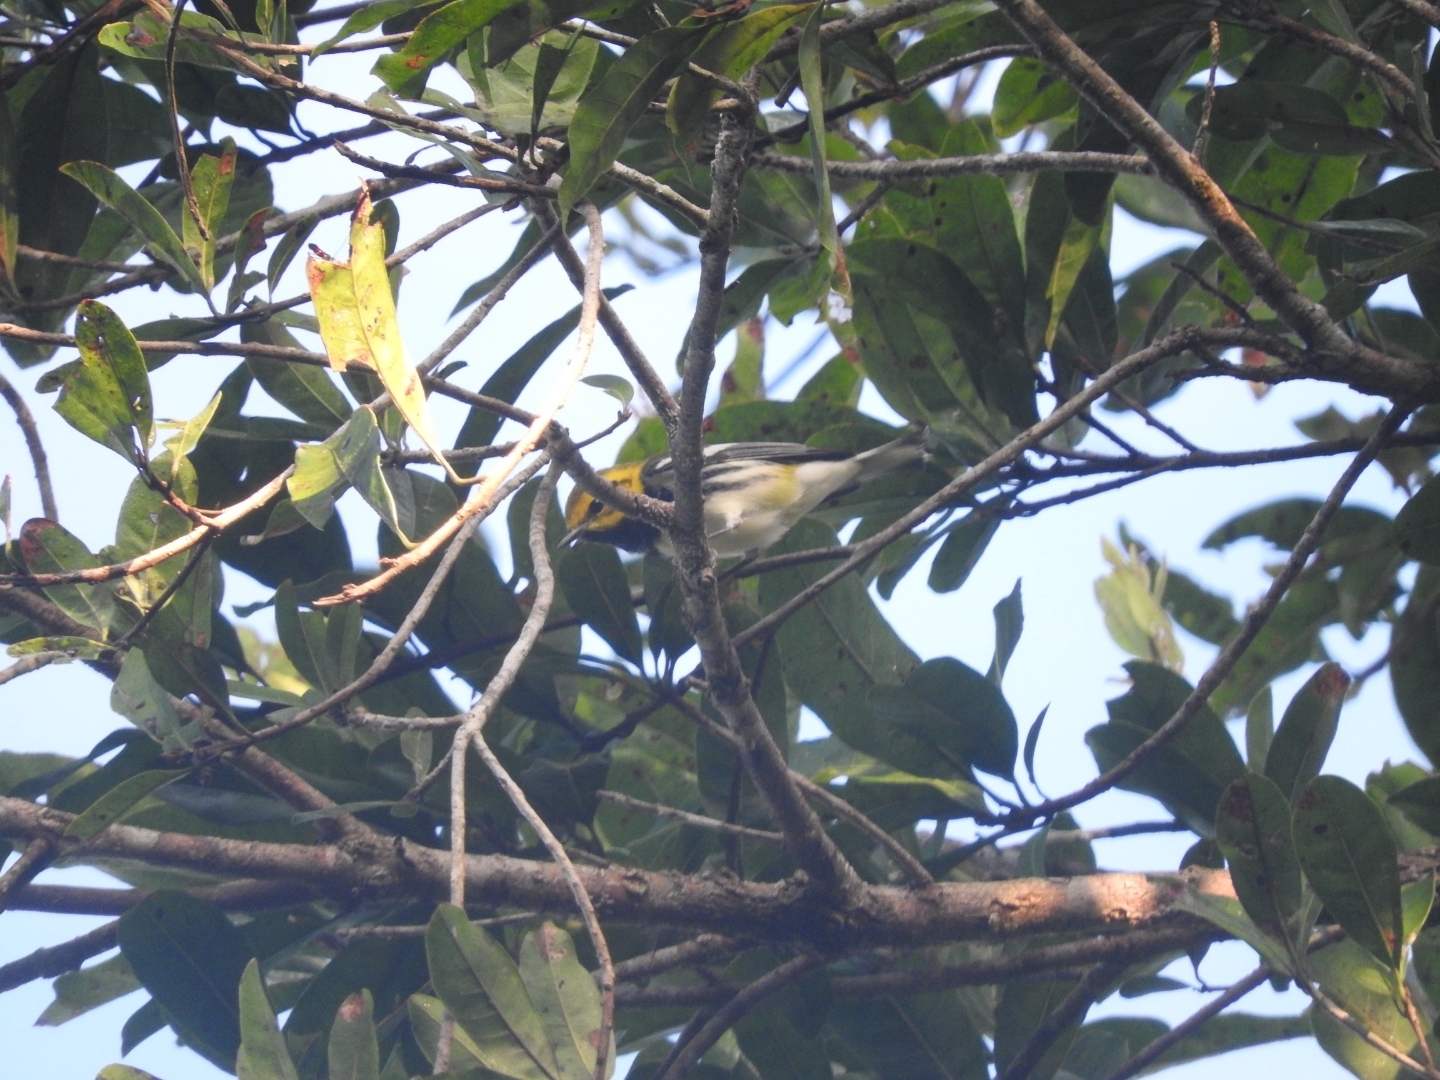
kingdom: Animalia
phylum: Chordata
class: Aves
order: Passeriformes
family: Parulidae
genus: Setophaga
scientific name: Setophaga virens
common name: Black-throated green warbler
